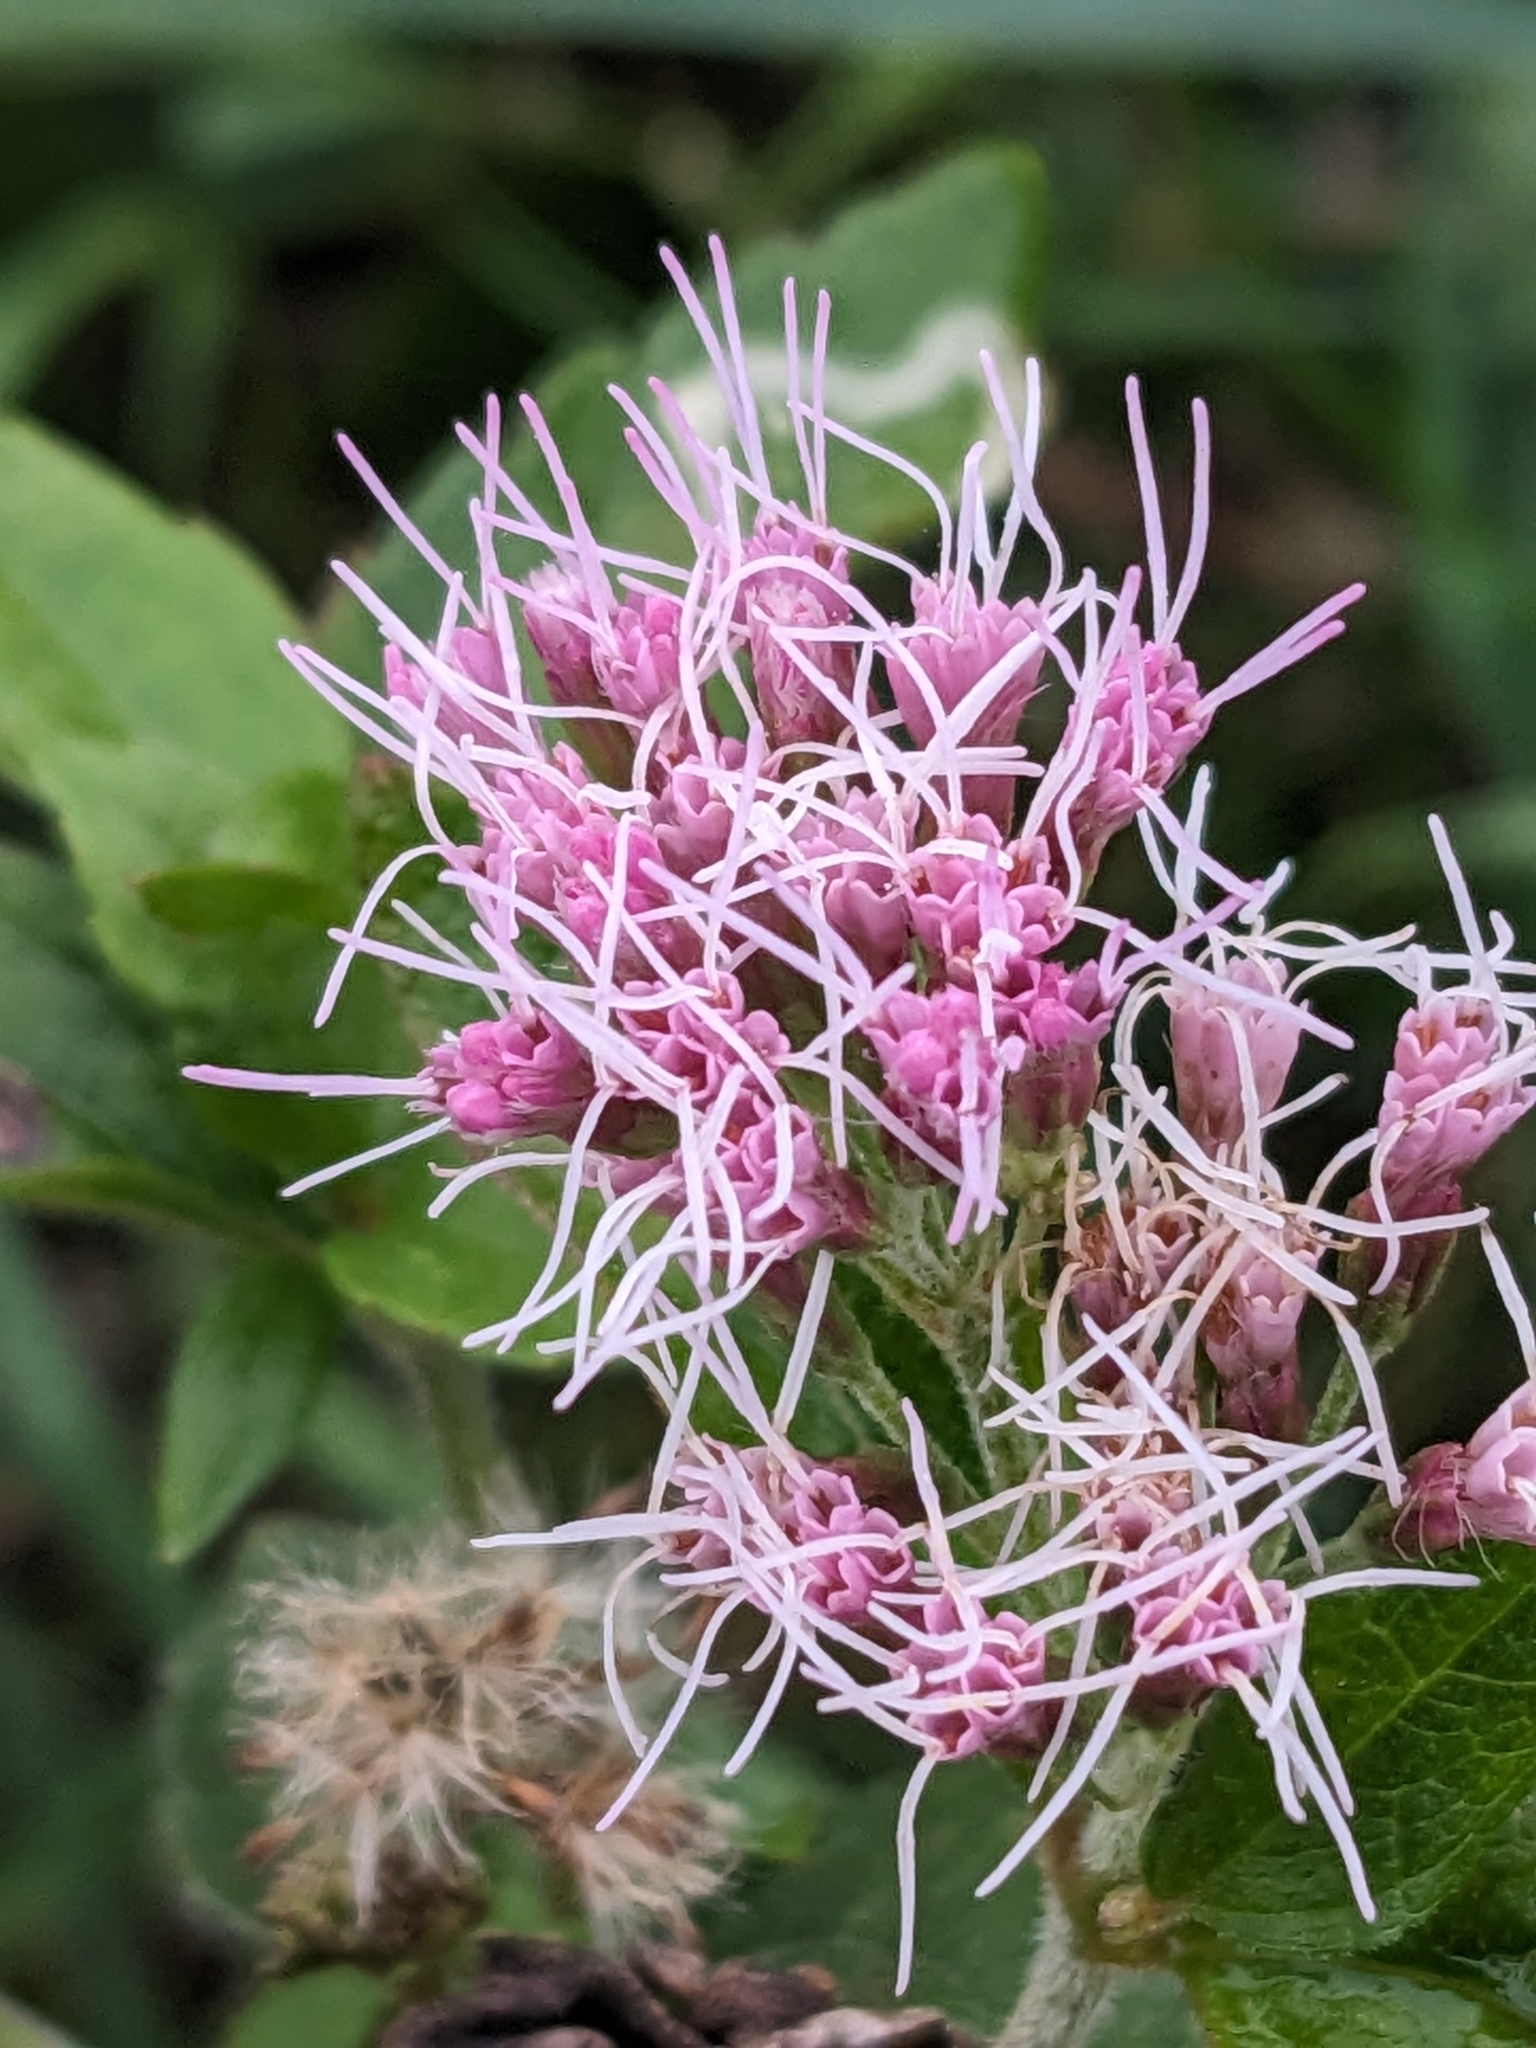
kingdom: Plantae
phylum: Tracheophyta
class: Magnoliopsida
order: Asterales
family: Asteraceae
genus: Eupatorium
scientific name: Eupatorium cannabinum
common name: Hemp-agrimony
